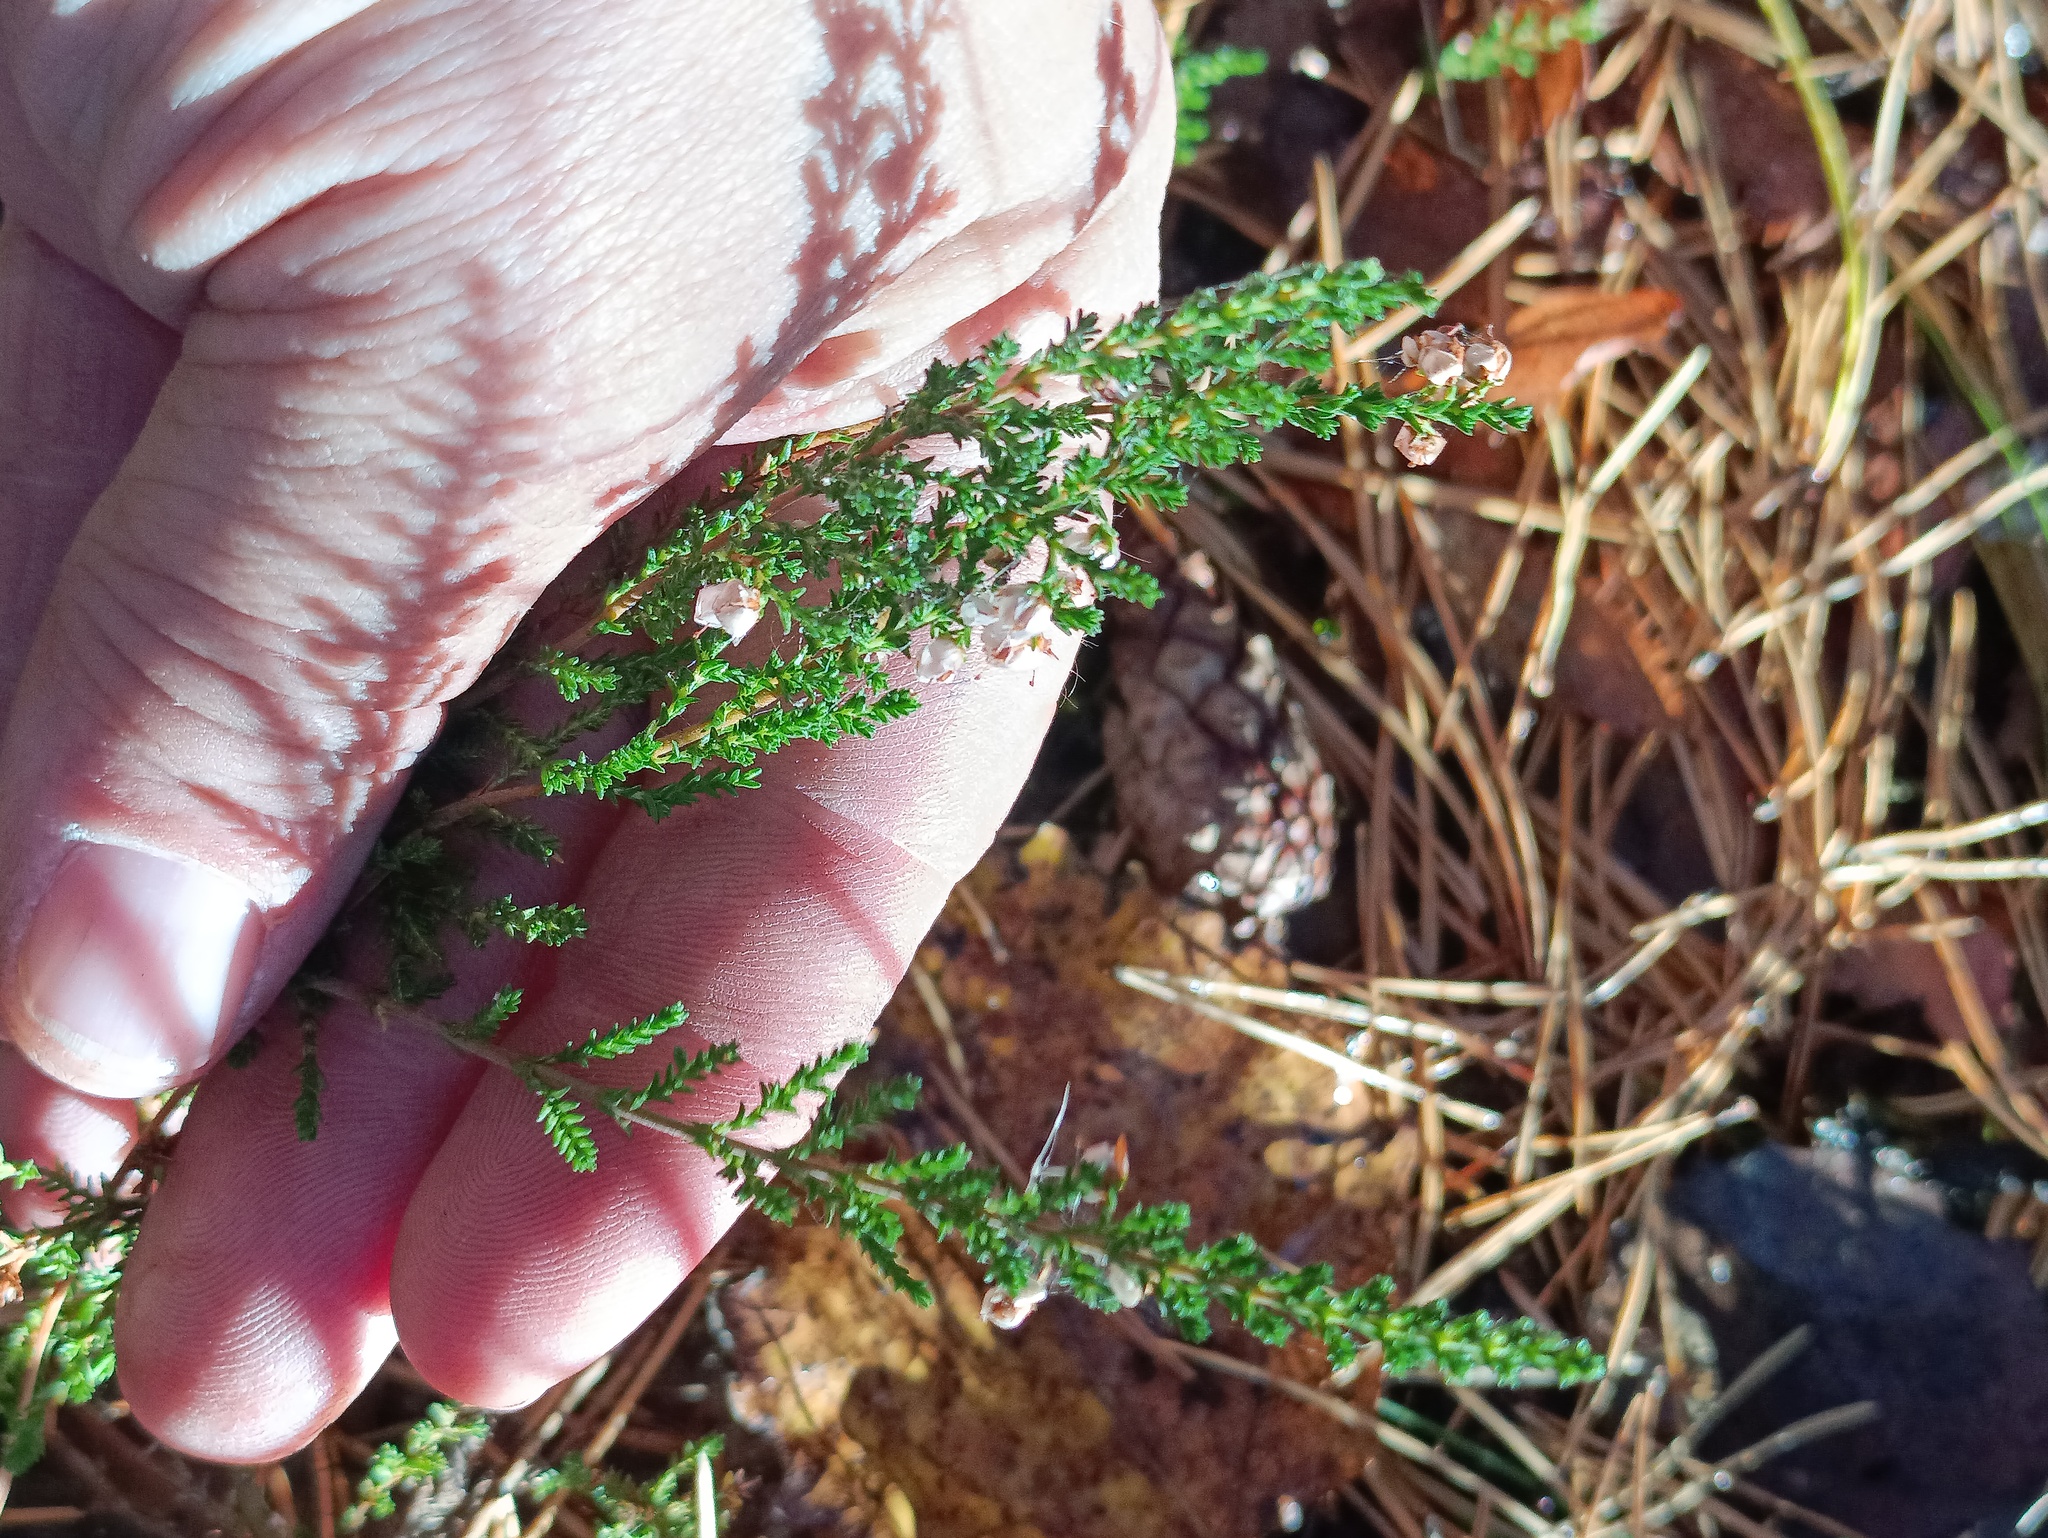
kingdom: Plantae
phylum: Tracheophyta
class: Magnoliopsida
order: Ericales
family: Ericaceae
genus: Calluna
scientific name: Calluna vulgaris
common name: Heather
